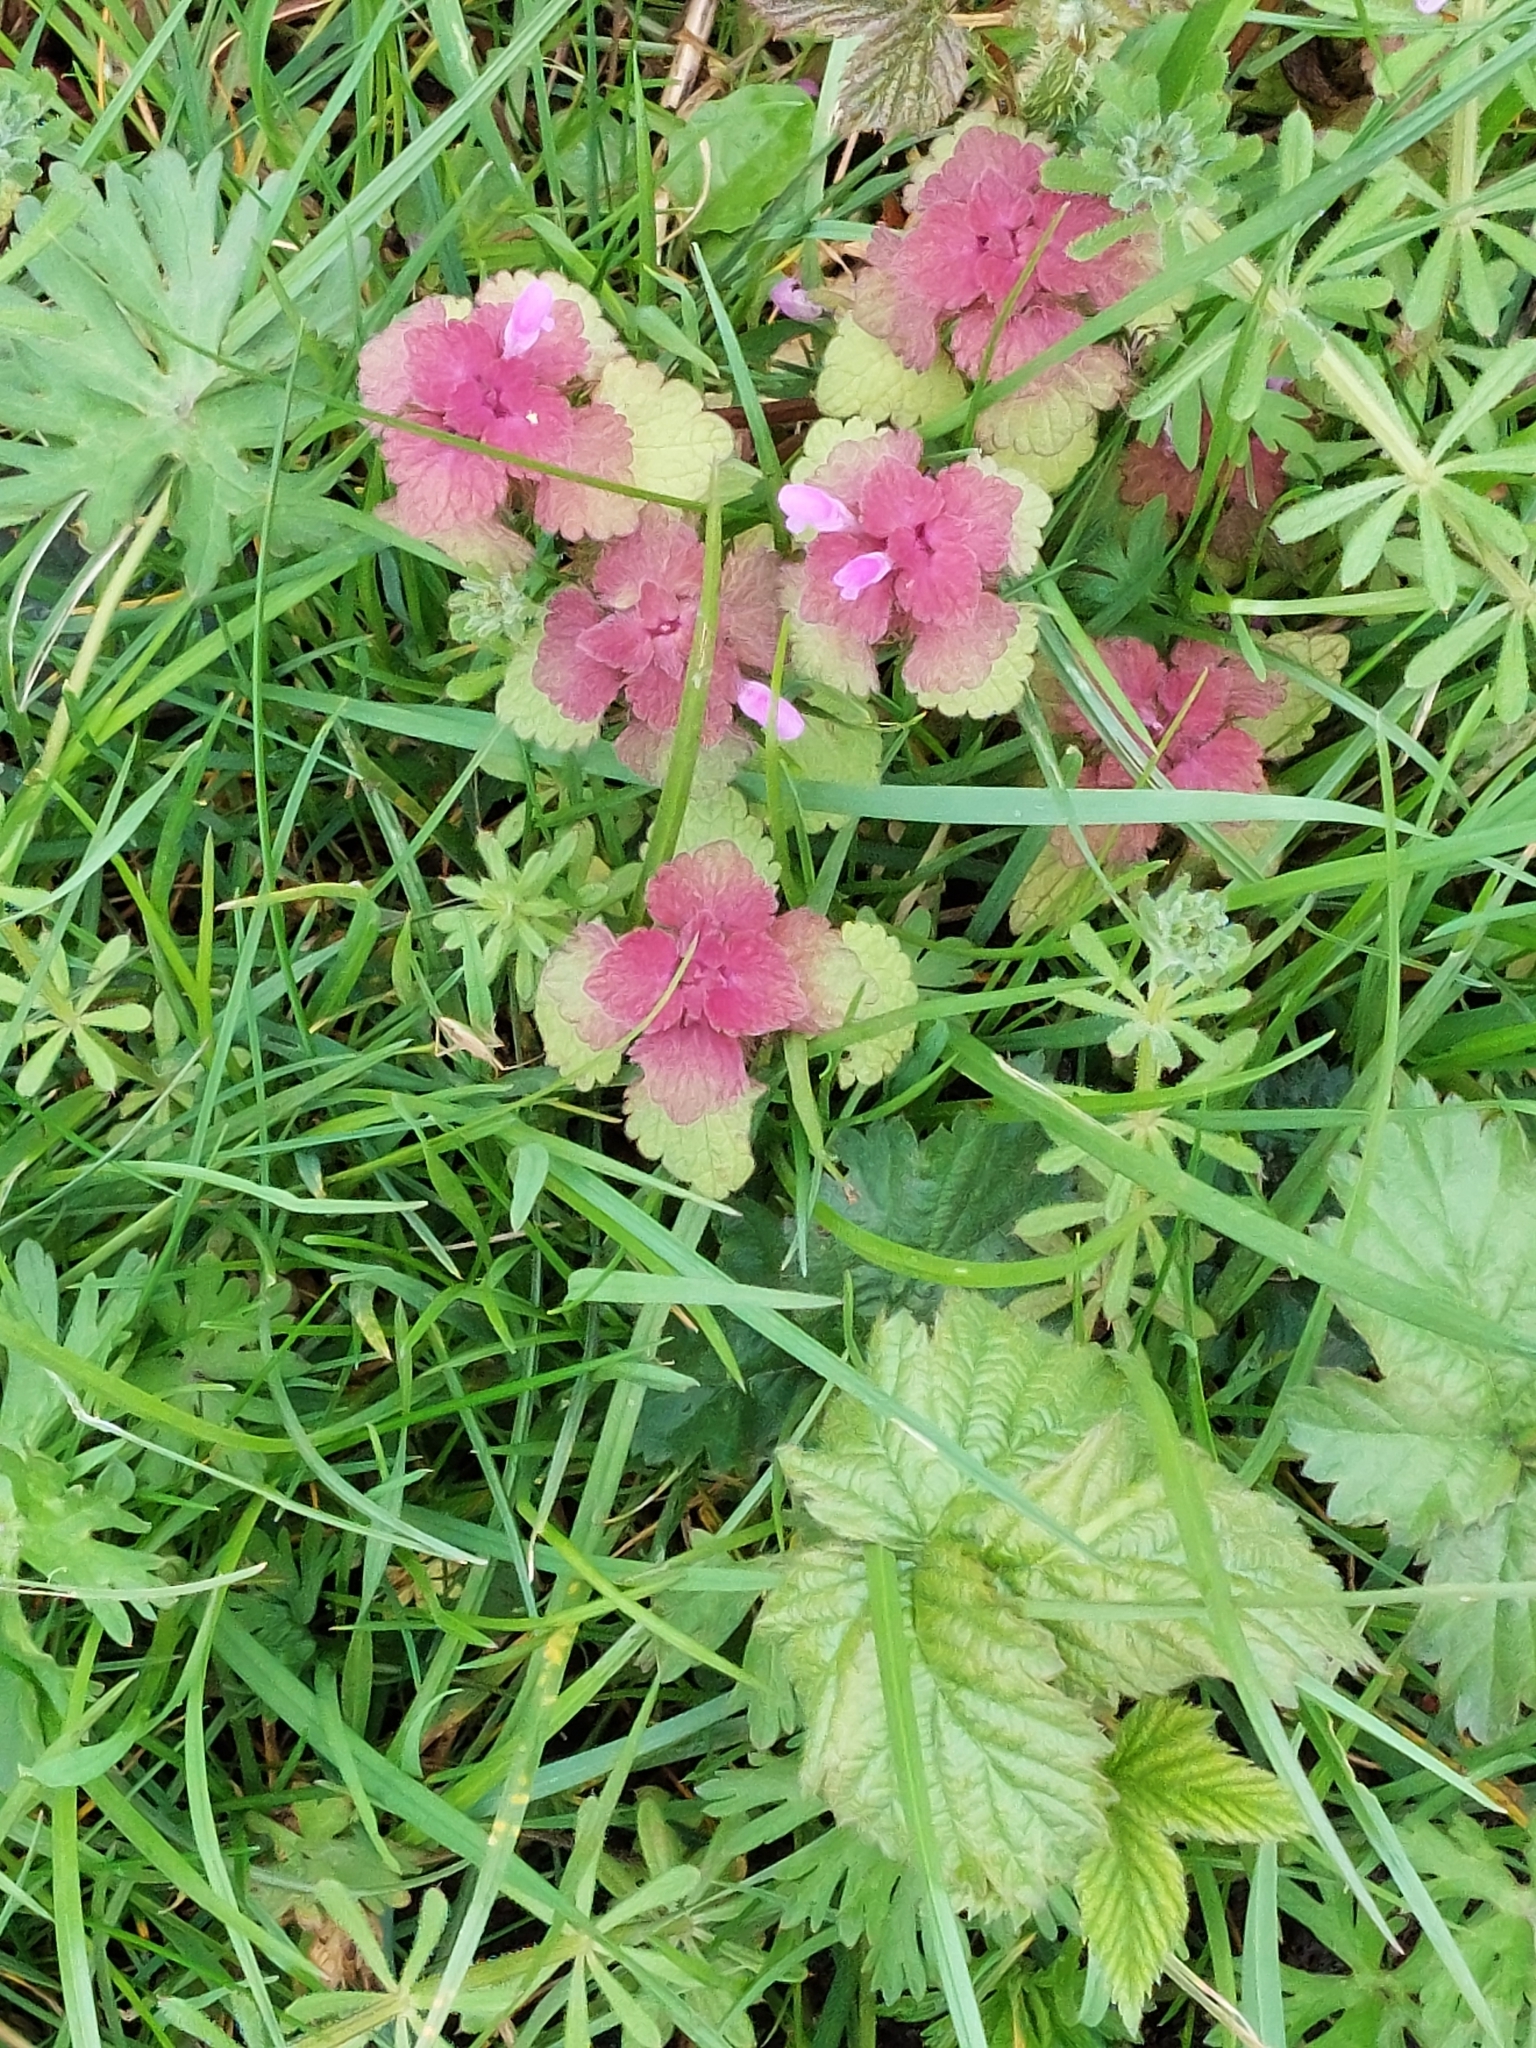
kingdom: Plantae
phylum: Tracheophyta
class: Magnoliopsida
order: Lamiales
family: Lamiaceae
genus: Lamium
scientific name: Lamium purpureum
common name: Red dead-nettle
